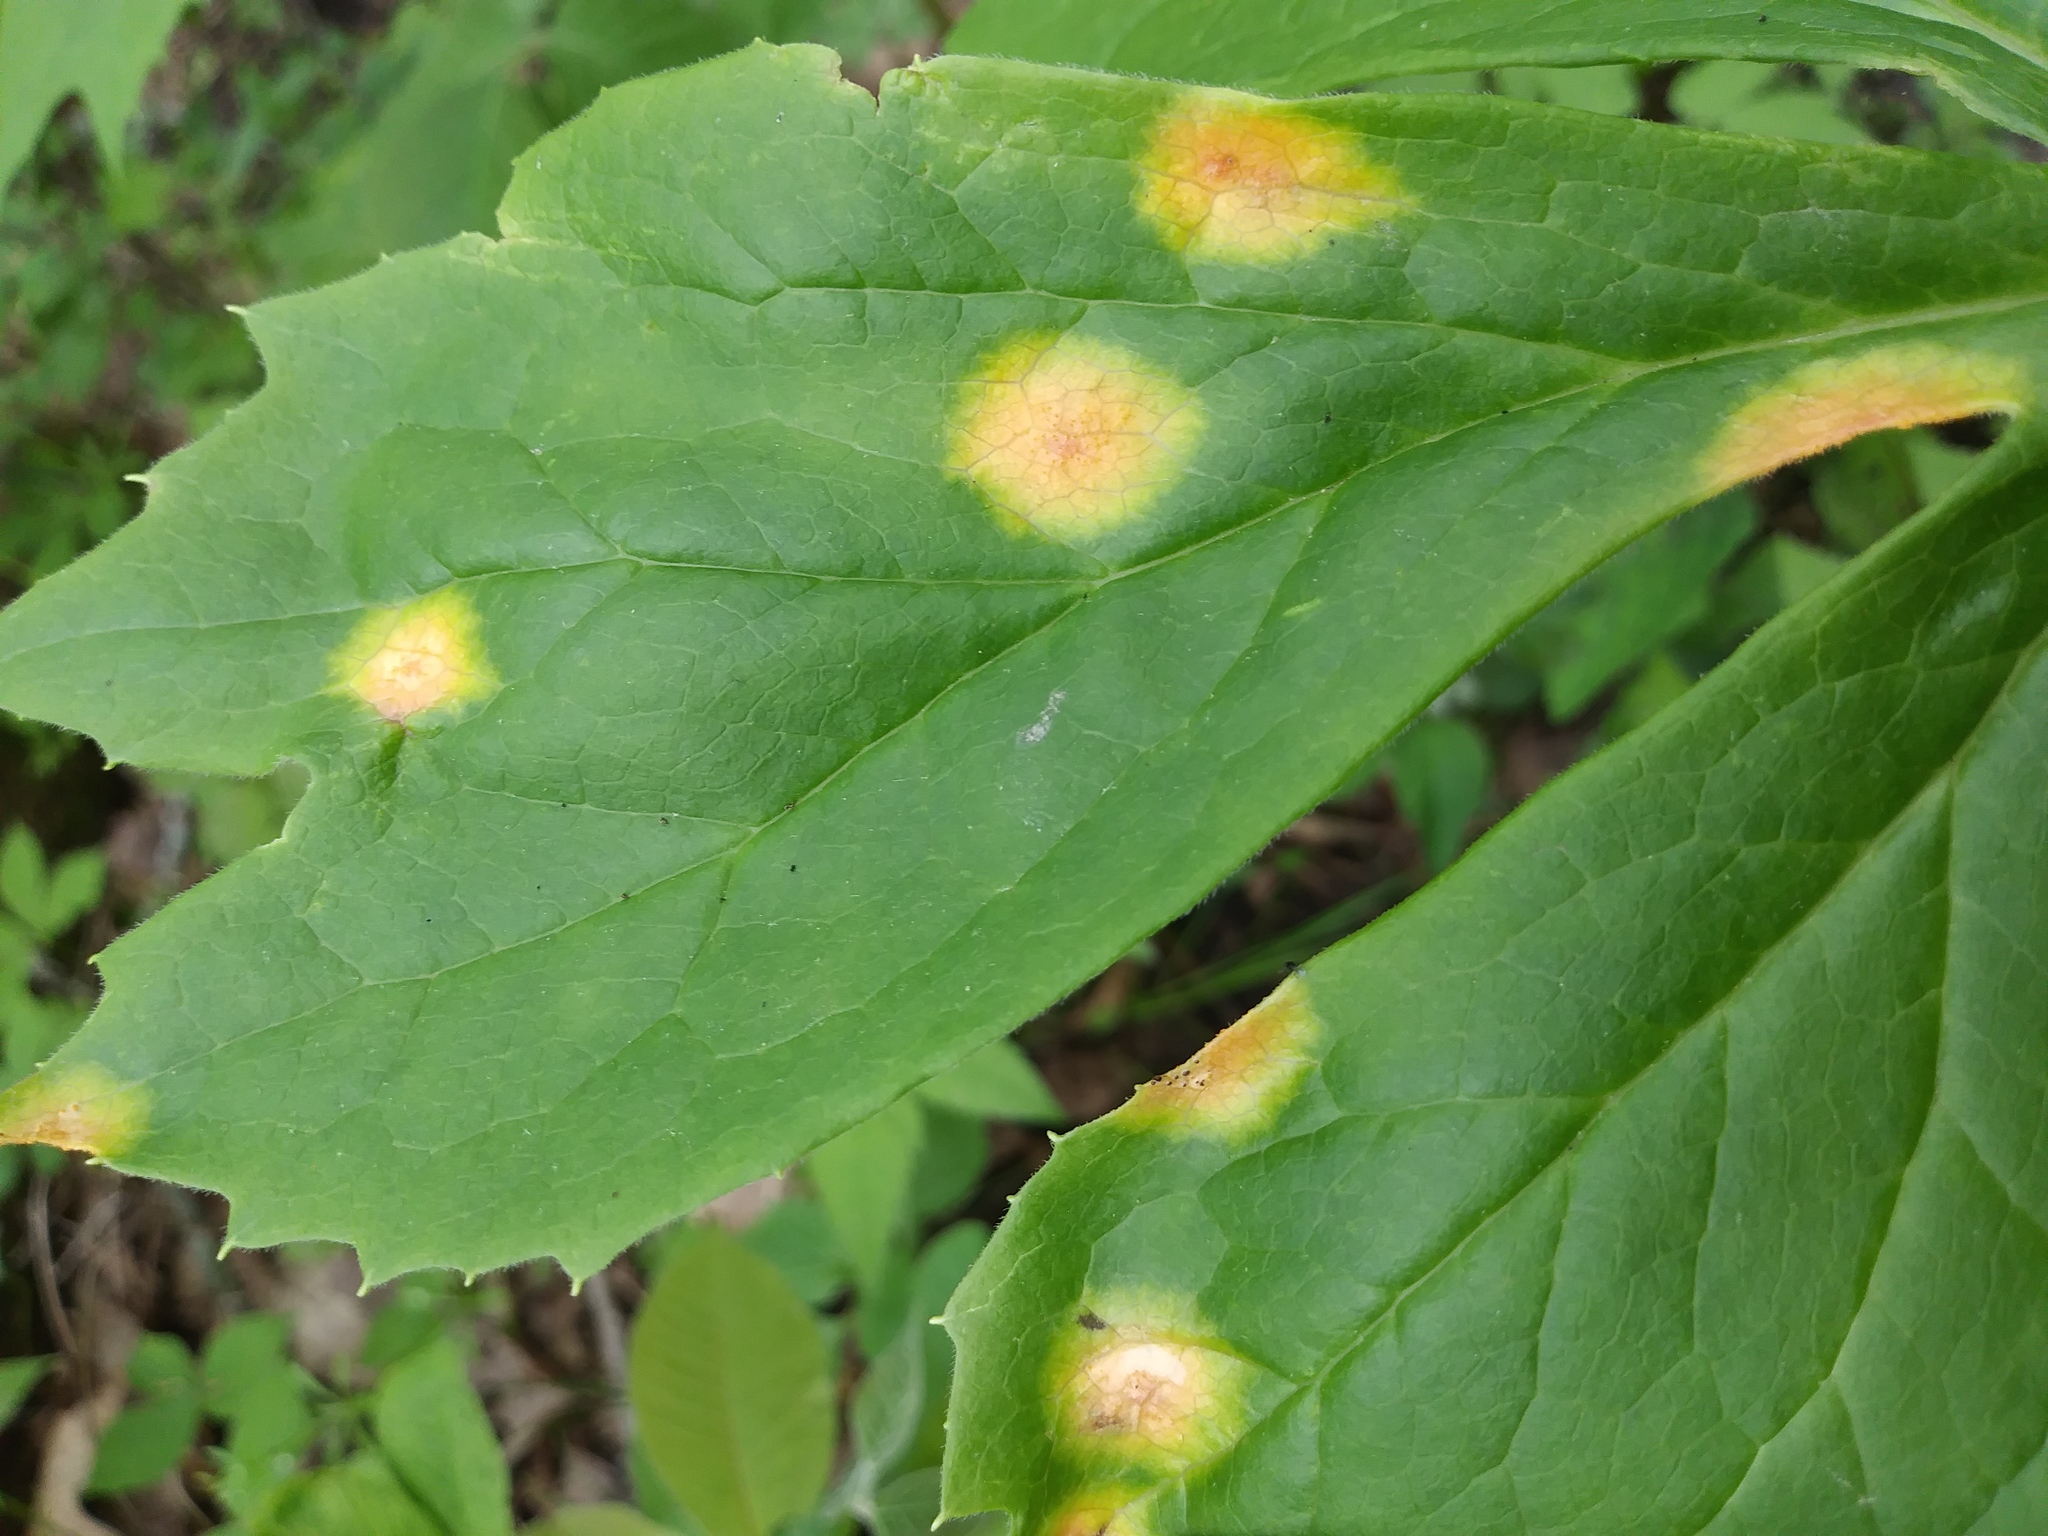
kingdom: Fungi
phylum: Basidiomycota
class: Pucciniomycetes
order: Pucciniales
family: Pucciniaceae
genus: Puccinia
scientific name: Puccinia podophylli
